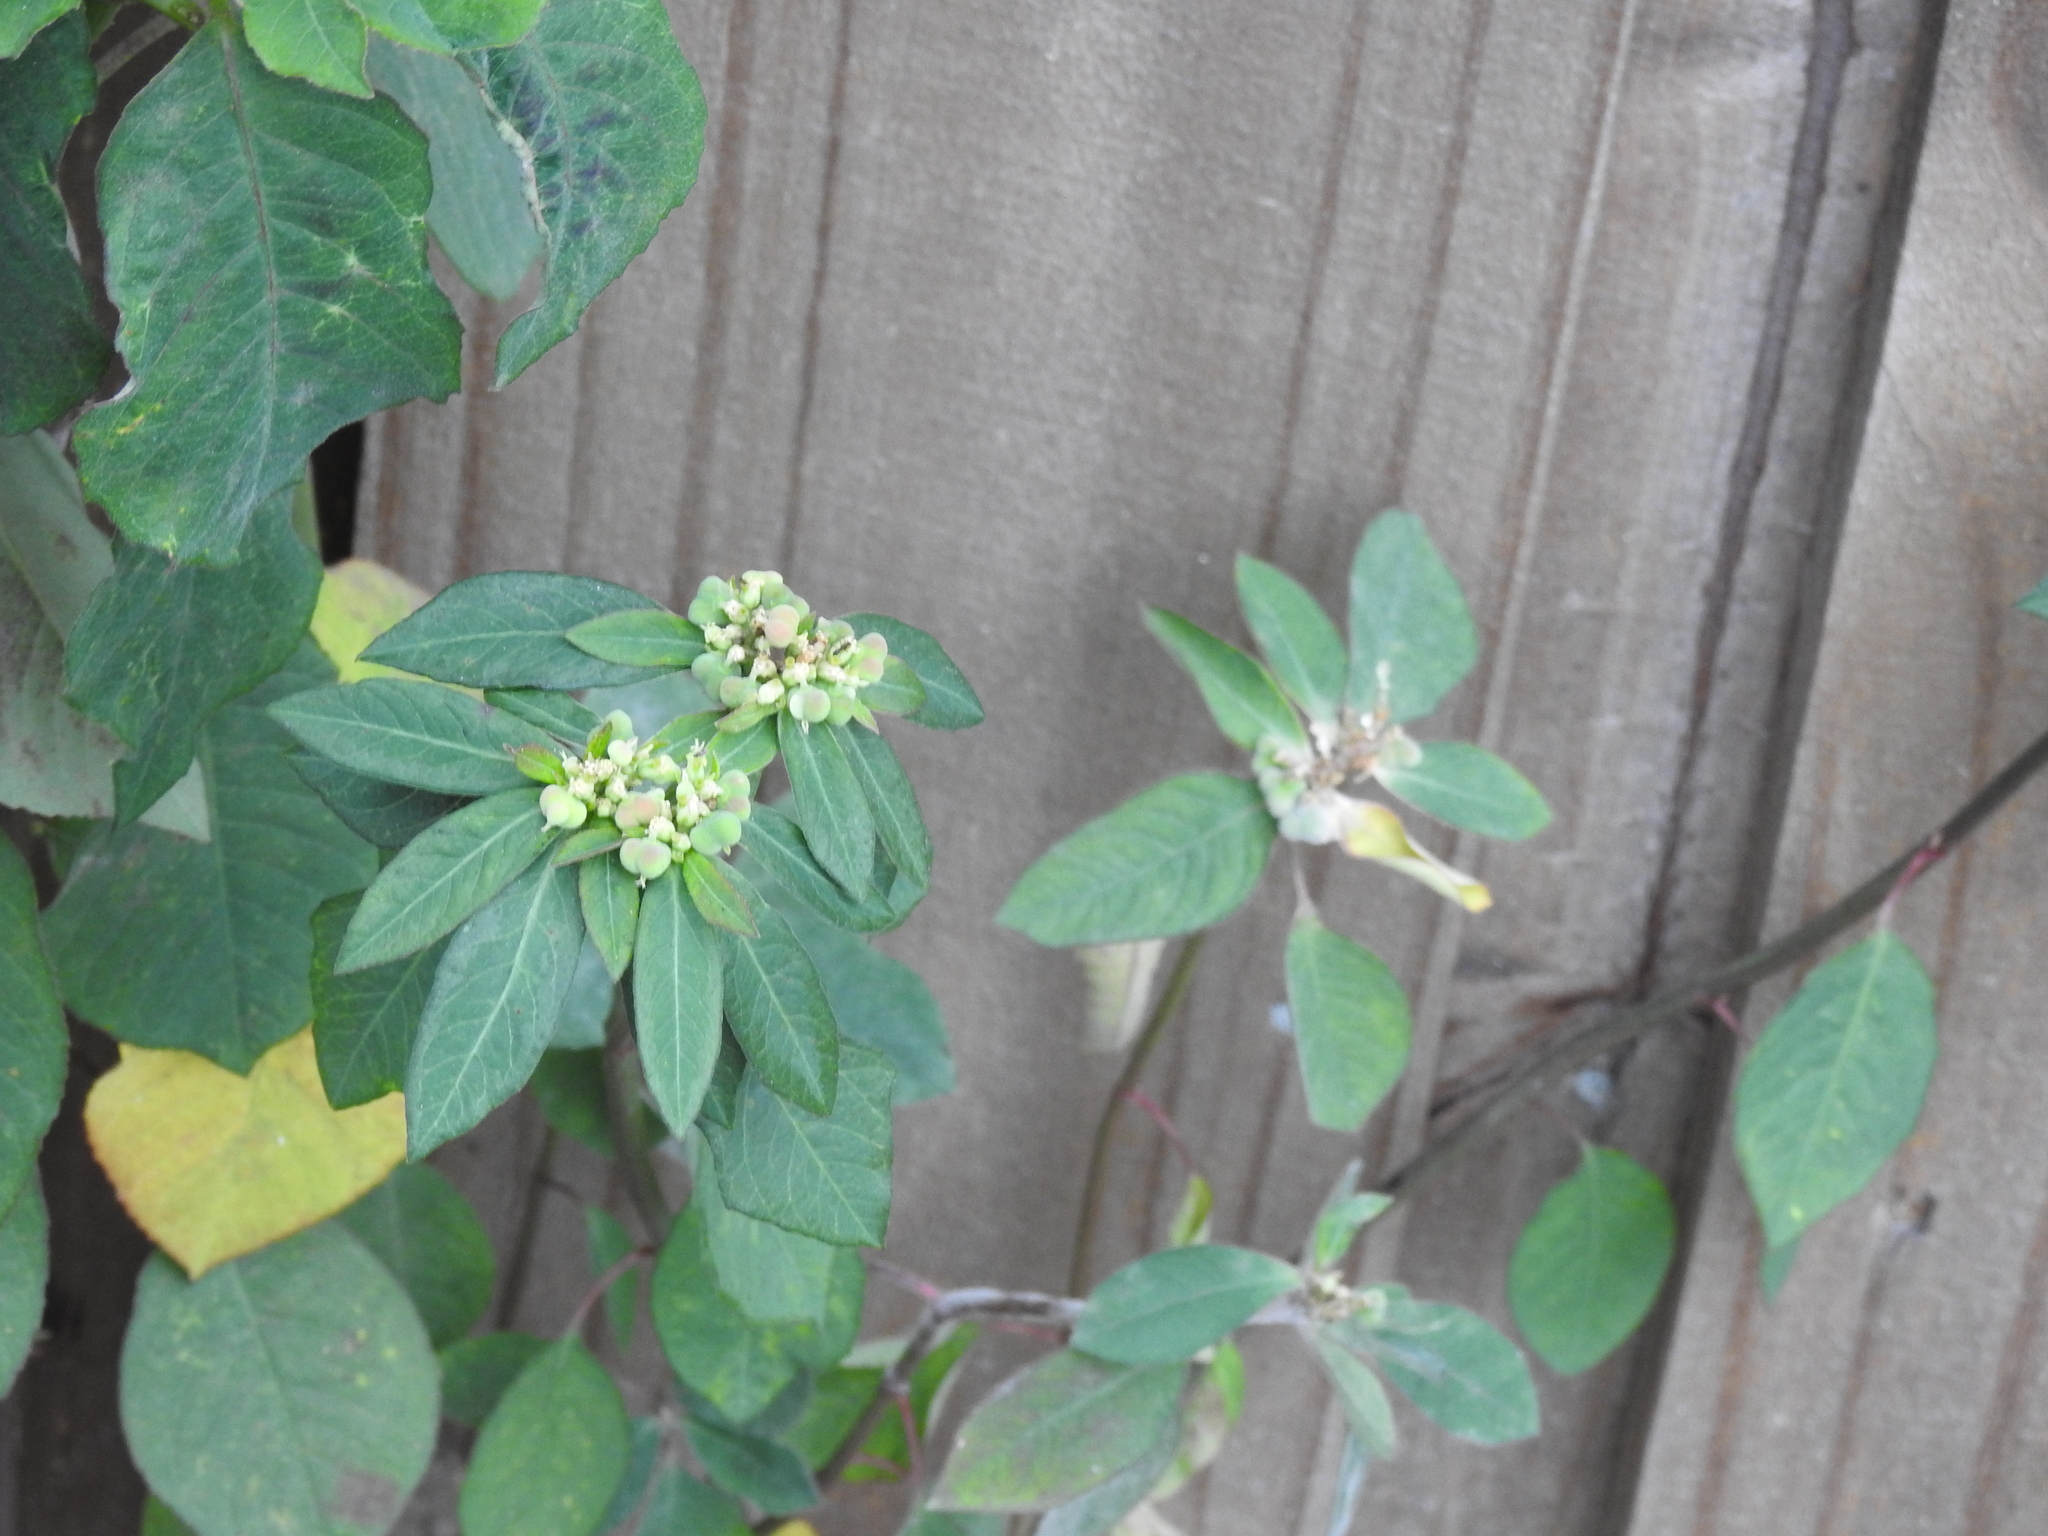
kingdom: Plantae
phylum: Tracheophyta
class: Magnoliopsida
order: Malpighiales
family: Euphorbiaceae
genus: Euphorbia
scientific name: Euphorbia heterophylla
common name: Mexican fireplant
